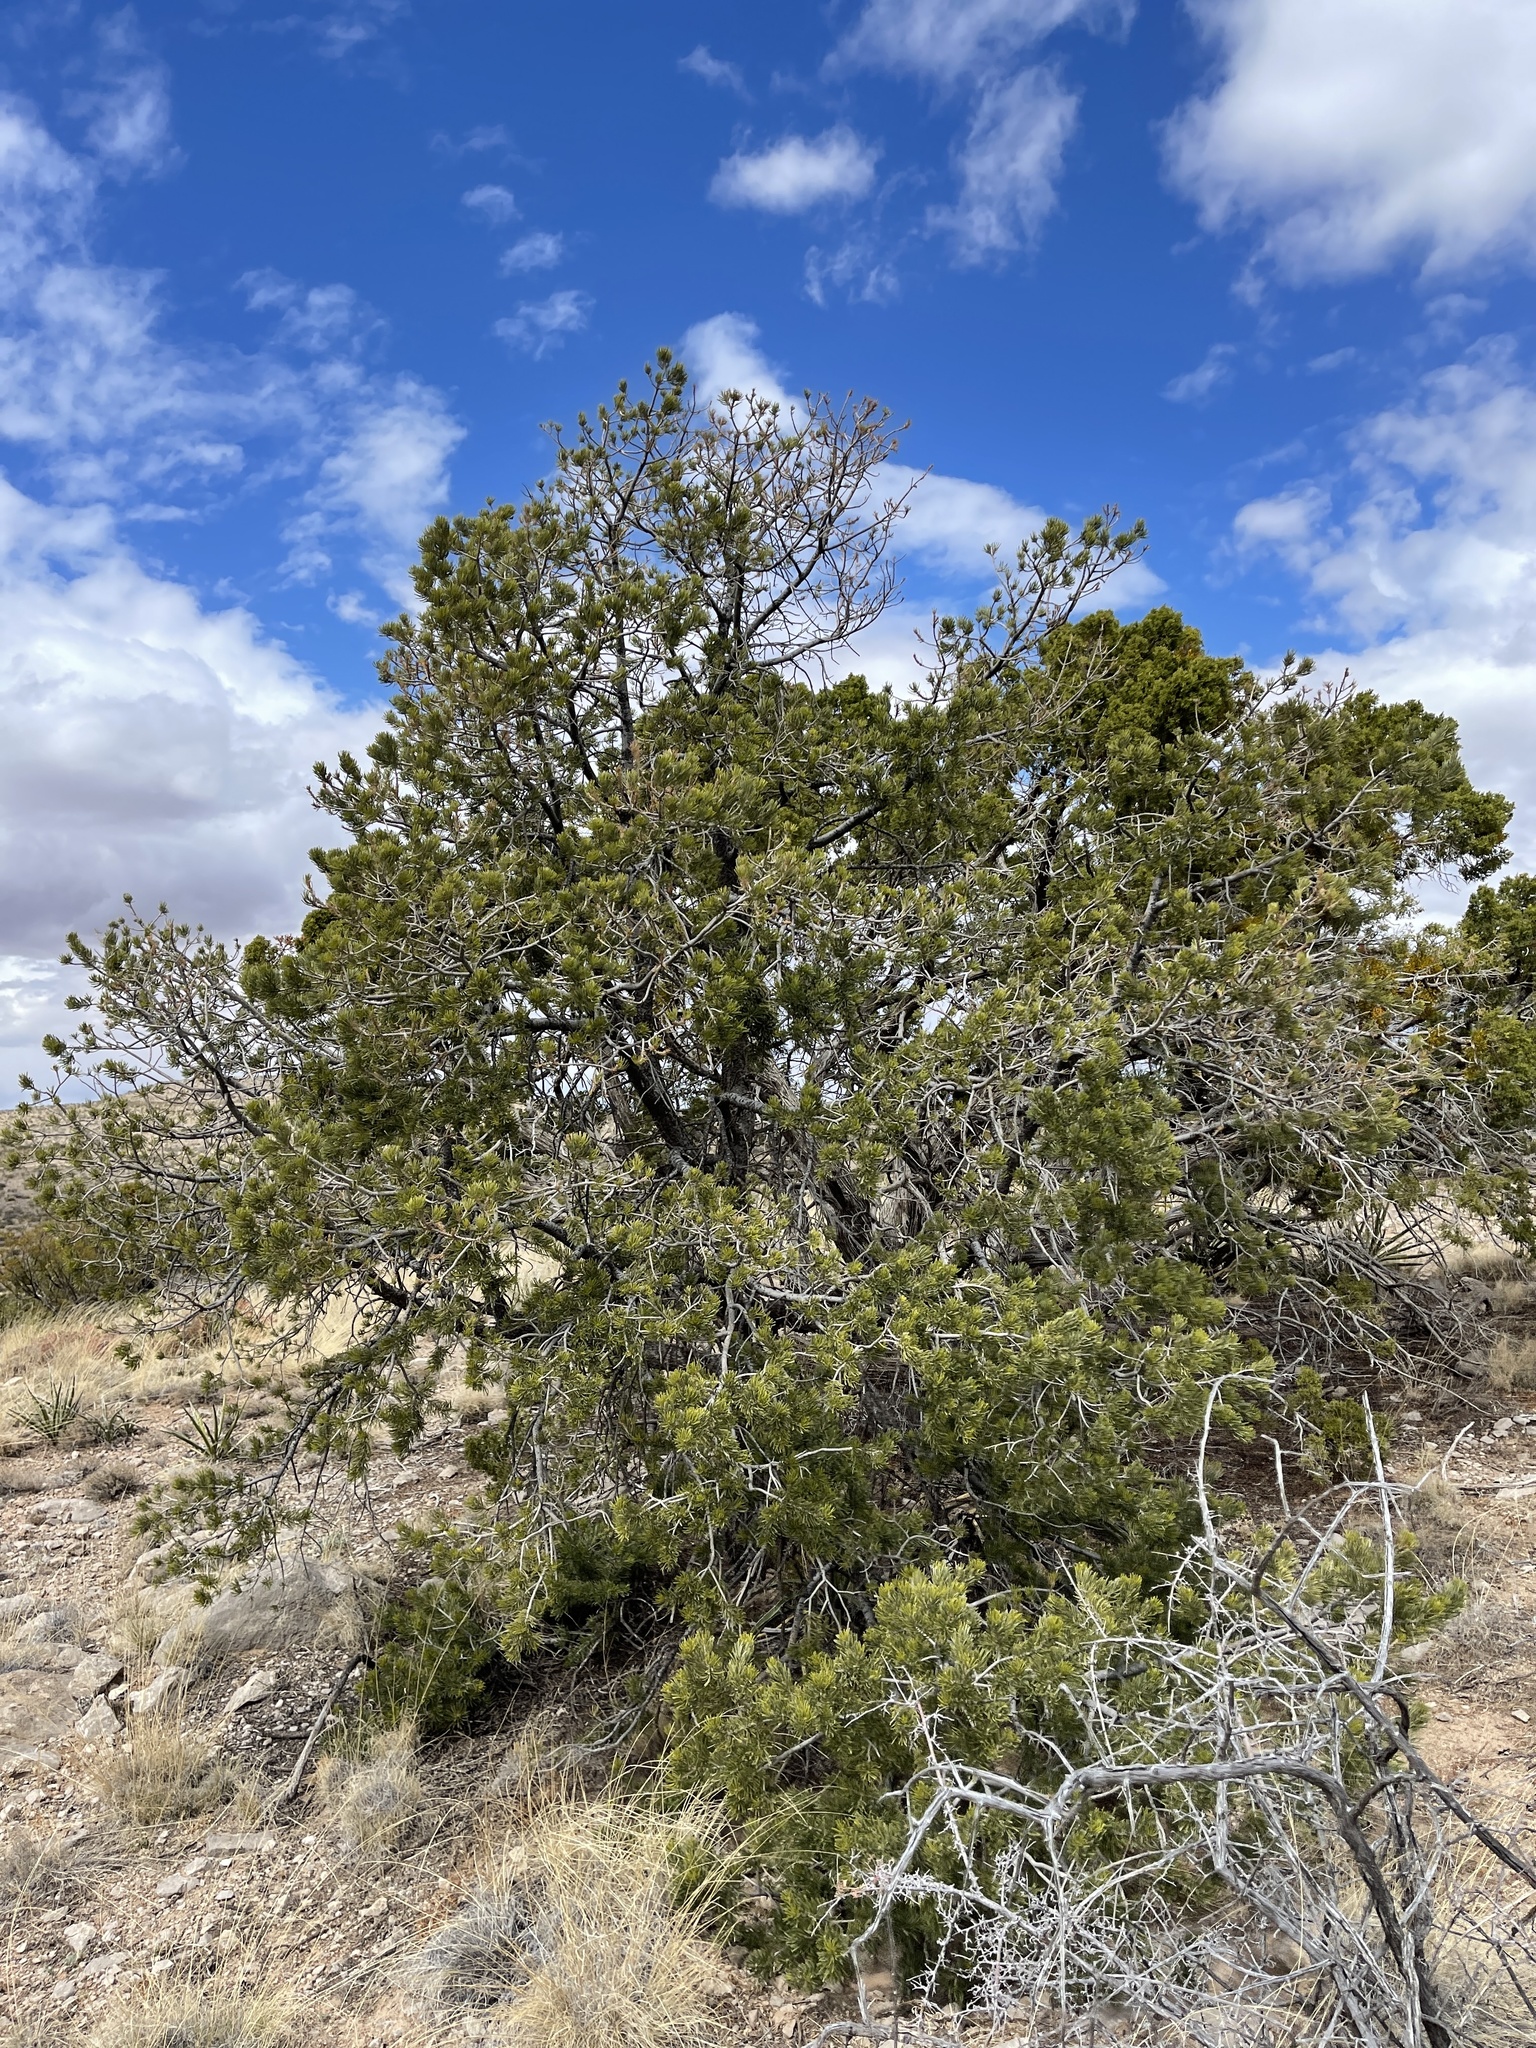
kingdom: Plantae
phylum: Tracheophyta
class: Pinopsida
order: Pinales
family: Pinaceae
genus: Pinus
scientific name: Pinus edulis
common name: Colorado pinyon
